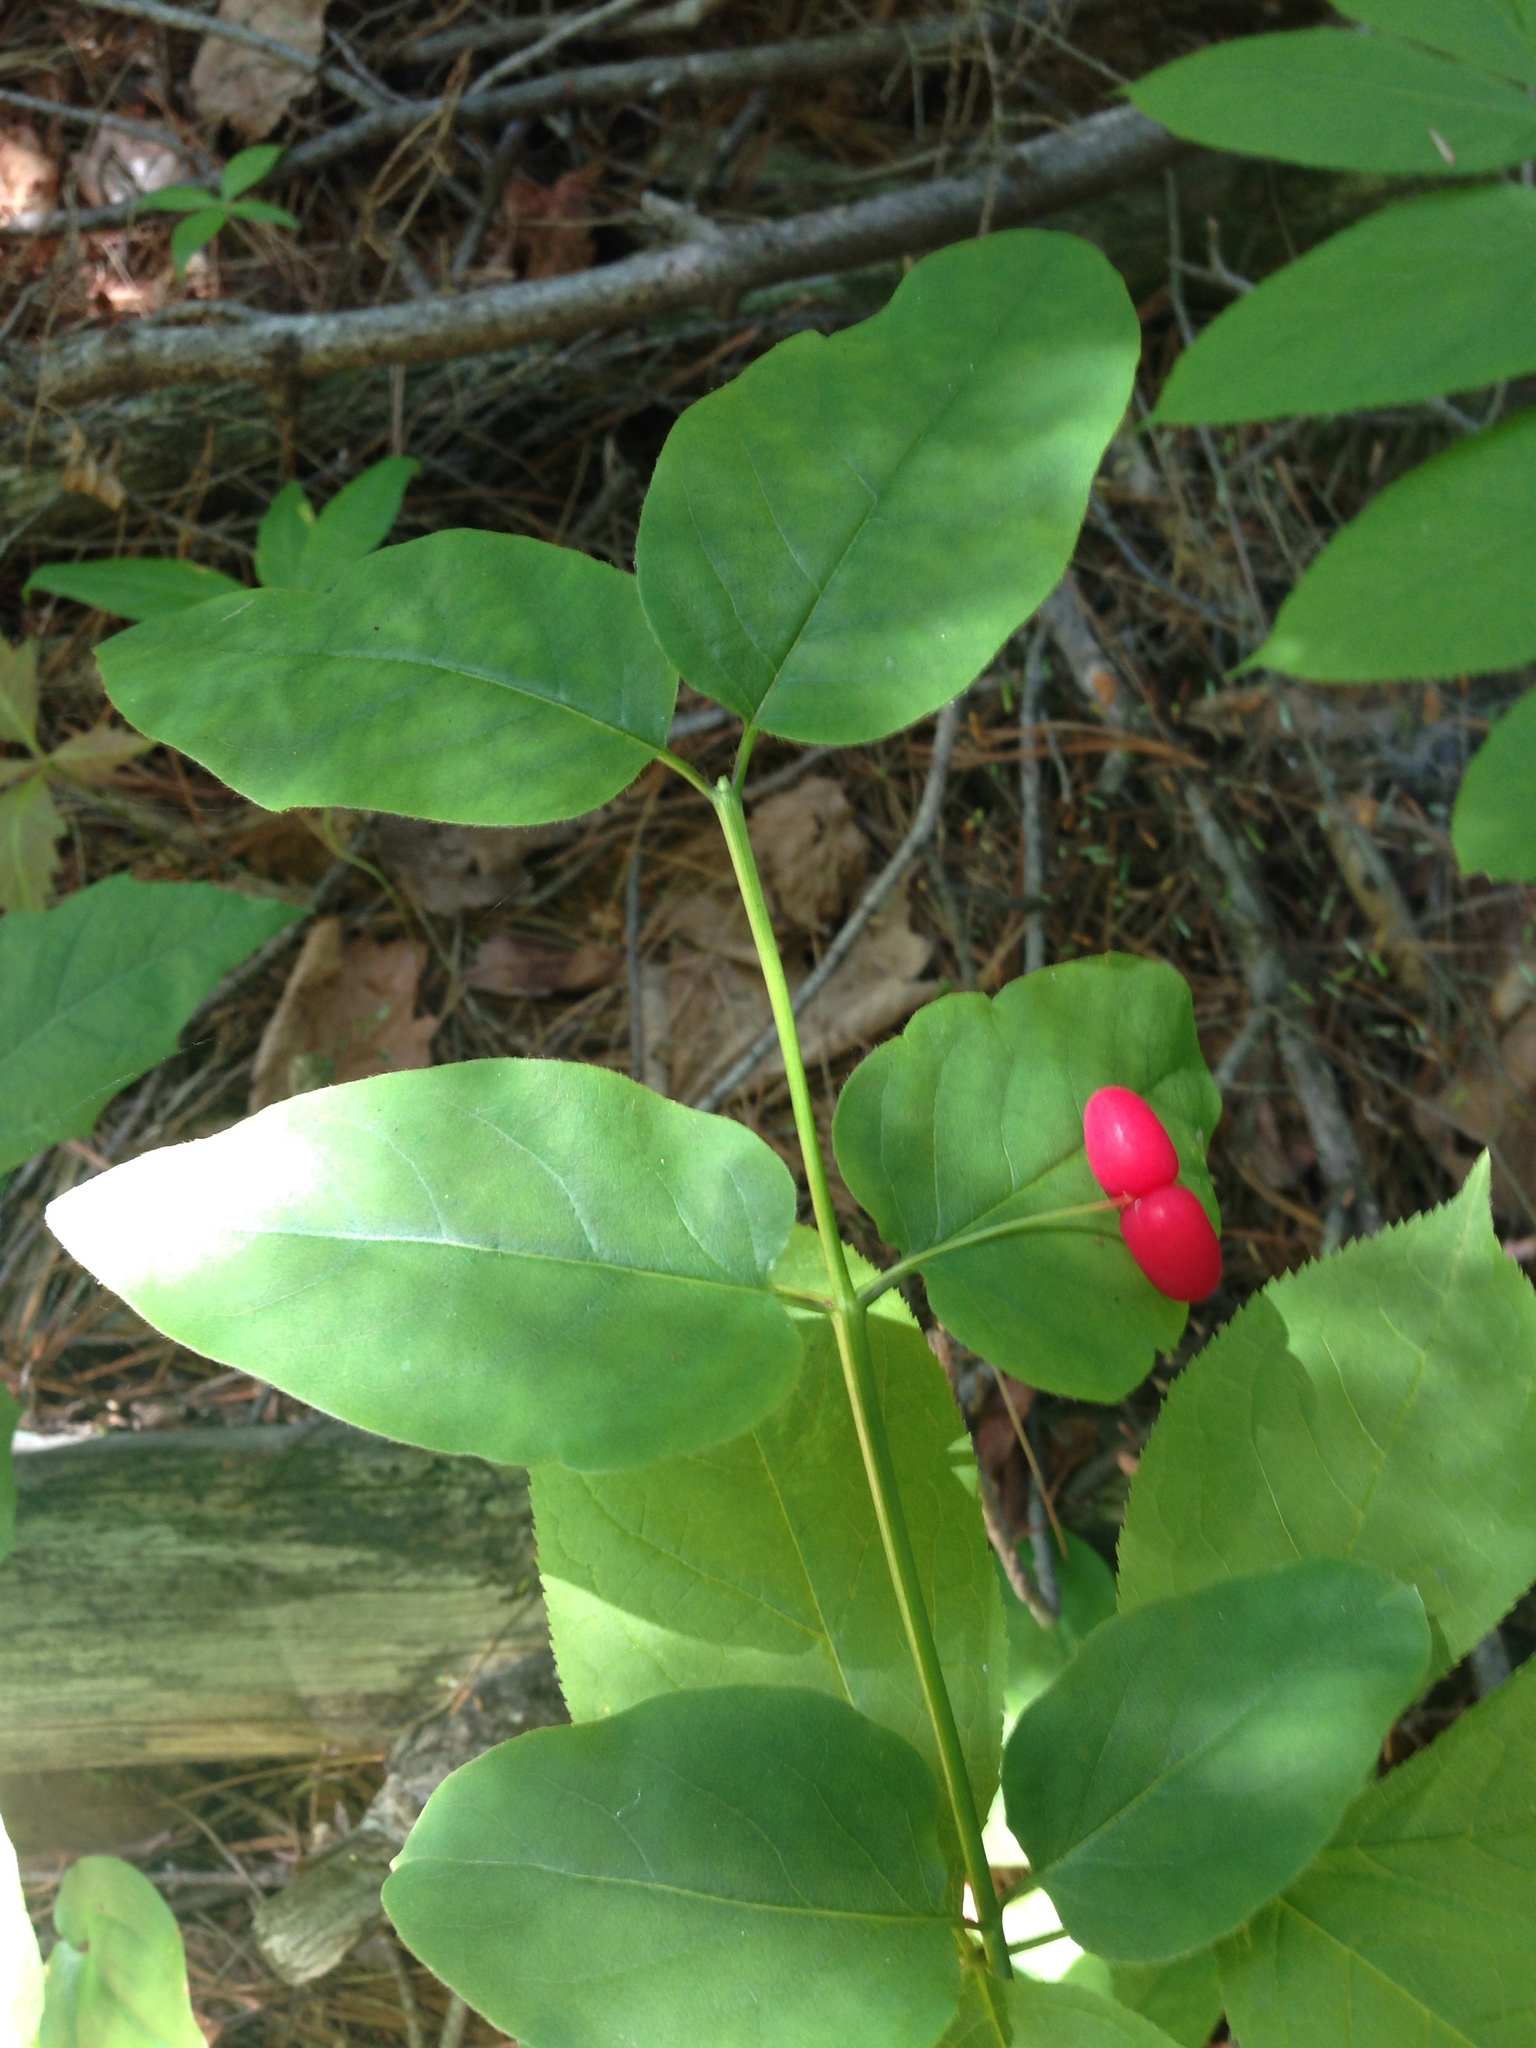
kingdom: Plantae
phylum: Tracheophyta
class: Magnoliopsida
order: Dipsacales
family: Caprifoliaceae
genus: Lonicera
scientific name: Lonicera canadensis
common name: American fly-honeysuckle
